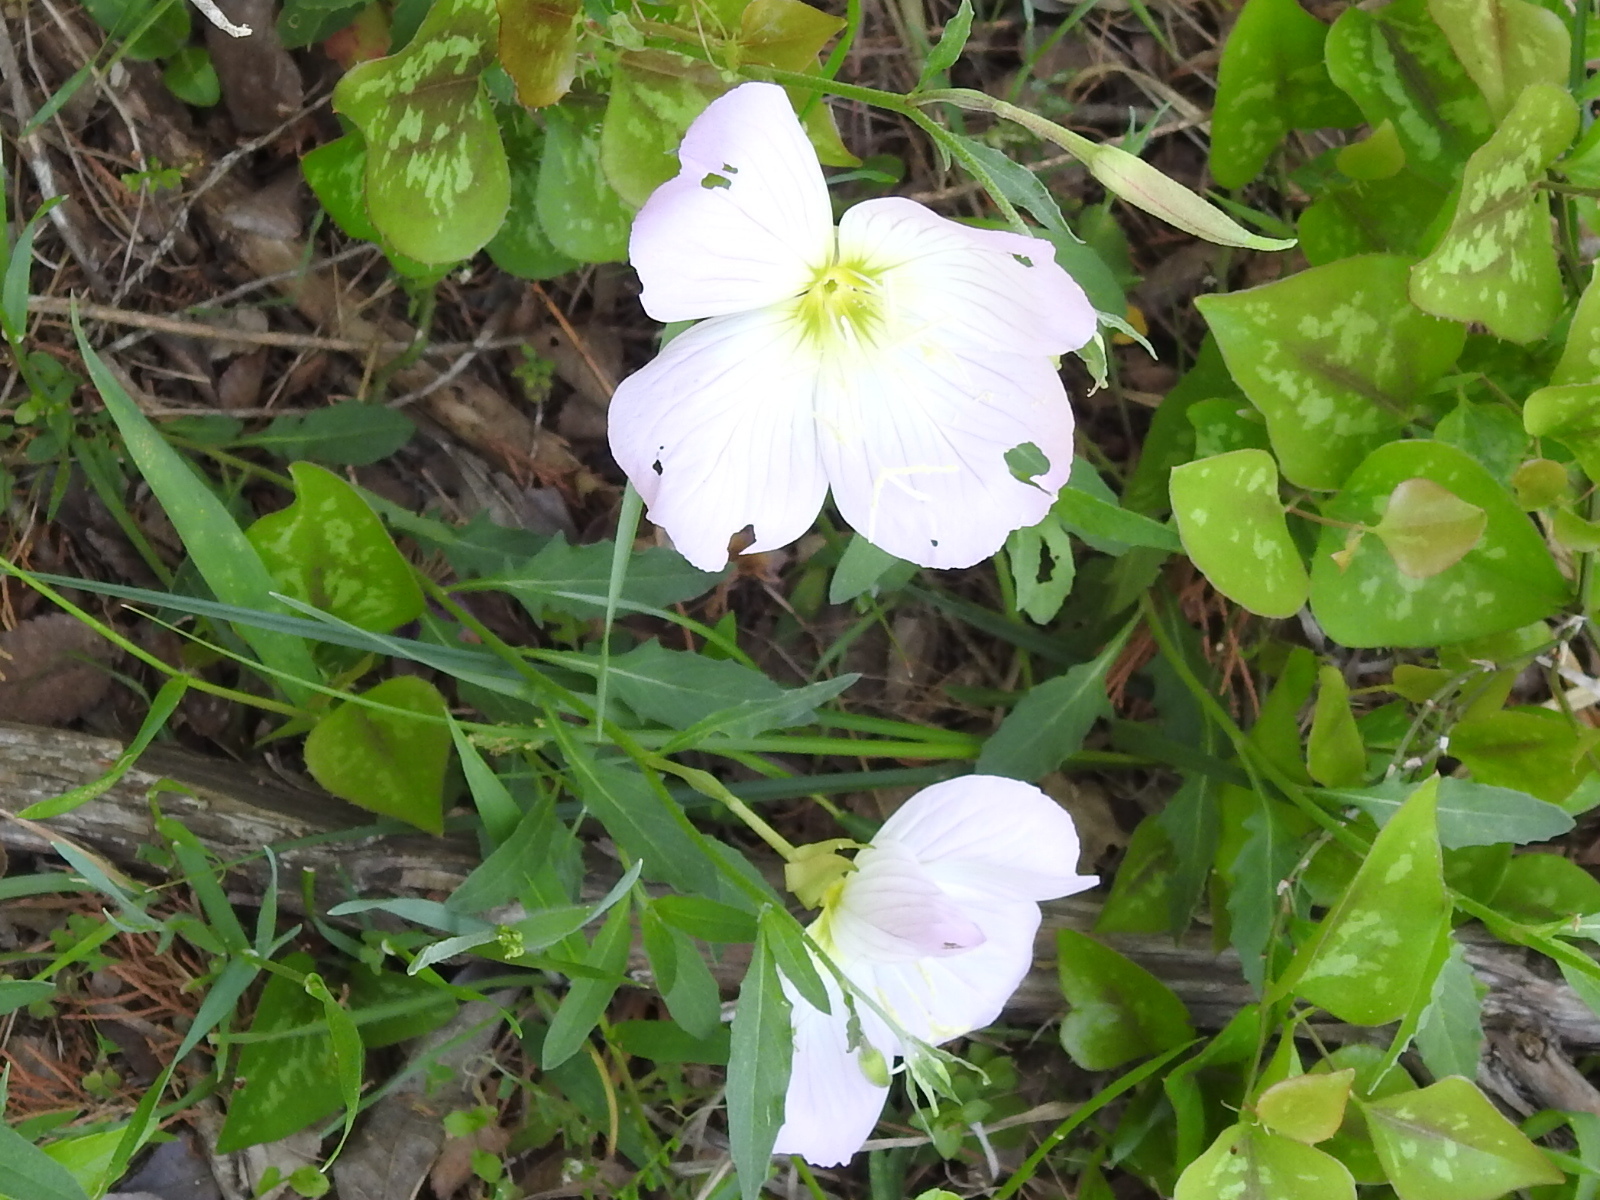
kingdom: Plantae
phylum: Tracheophyta
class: Magnoliopsida
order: Myrtales
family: Onagraceae
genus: Oenothera
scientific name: Oenothera speciosa
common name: White evening-primrose
